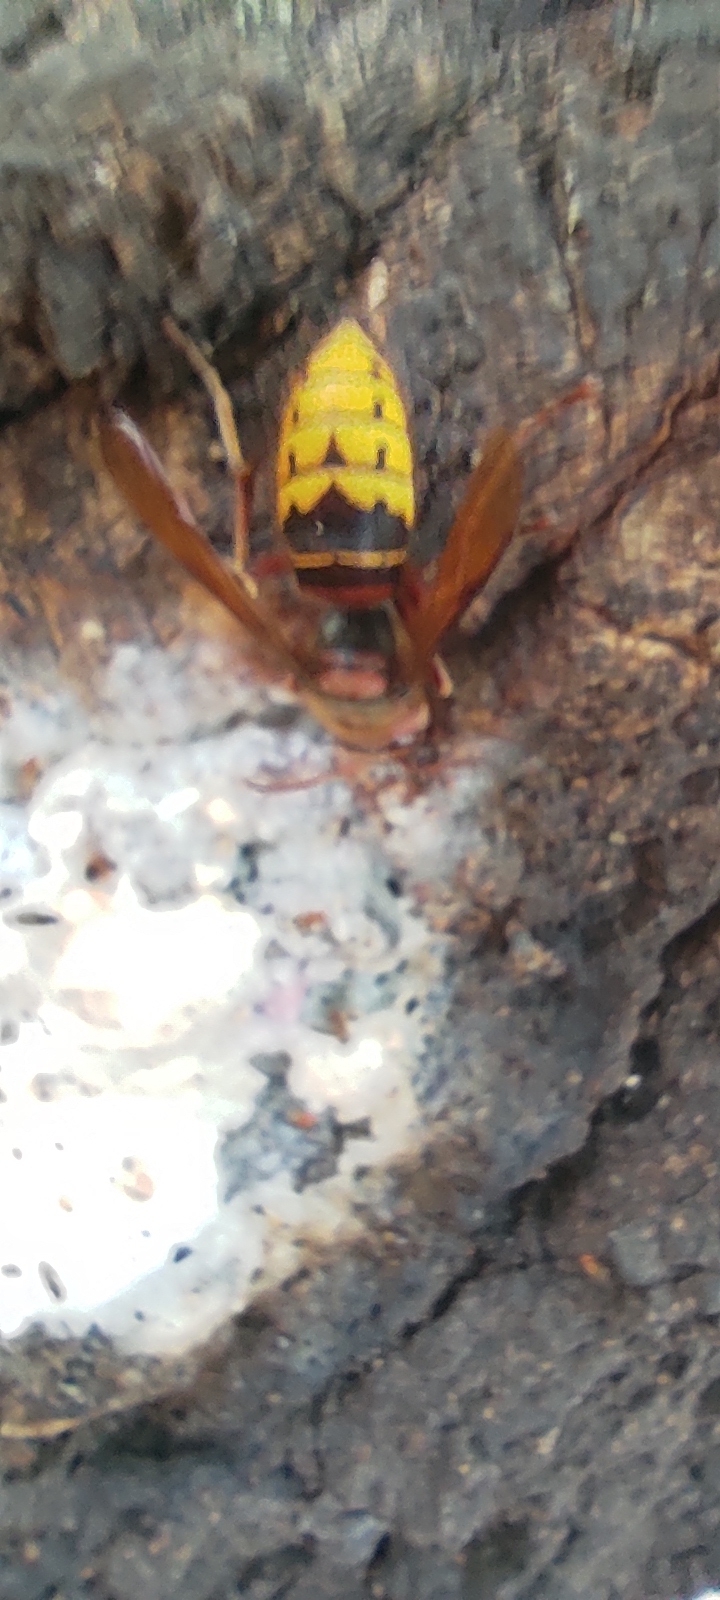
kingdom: Animalia
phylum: Arthropoda
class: Insecta
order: Hymenoptera
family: Vespidae
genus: Vespa
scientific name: Vespa crabro
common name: Hornet
